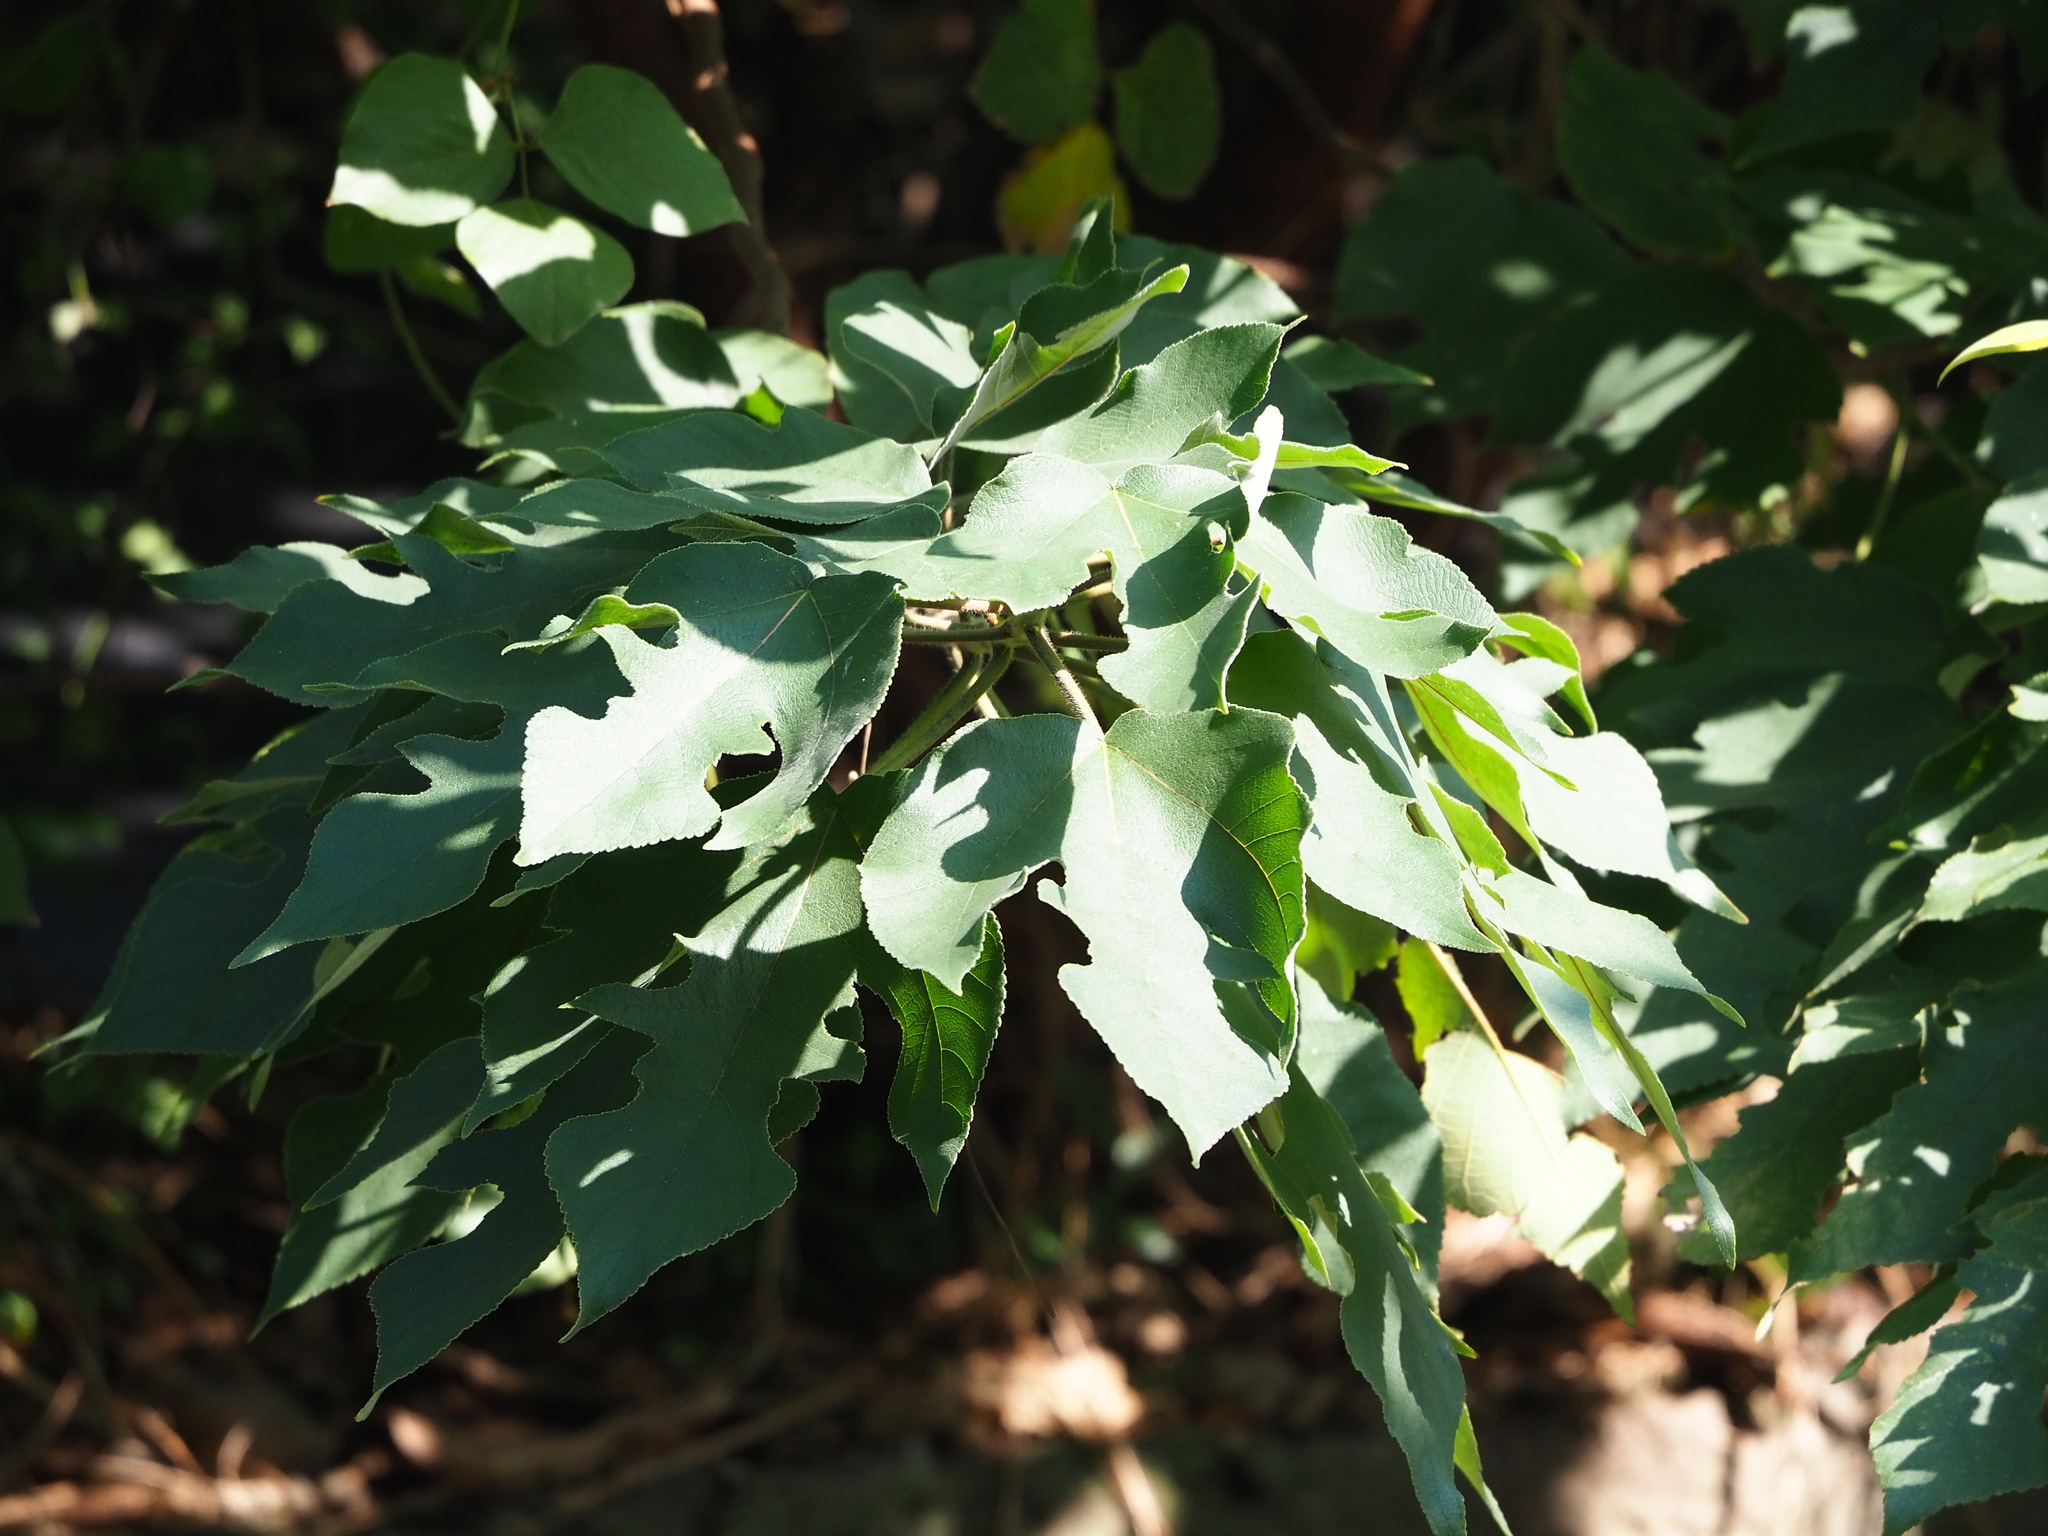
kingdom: Plantae
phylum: Tracheophyta
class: Magnoliopsida
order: Rosales
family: Moraceae
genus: Broussonetia
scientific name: Broussonetia papyrifera
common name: Paper mulberry
